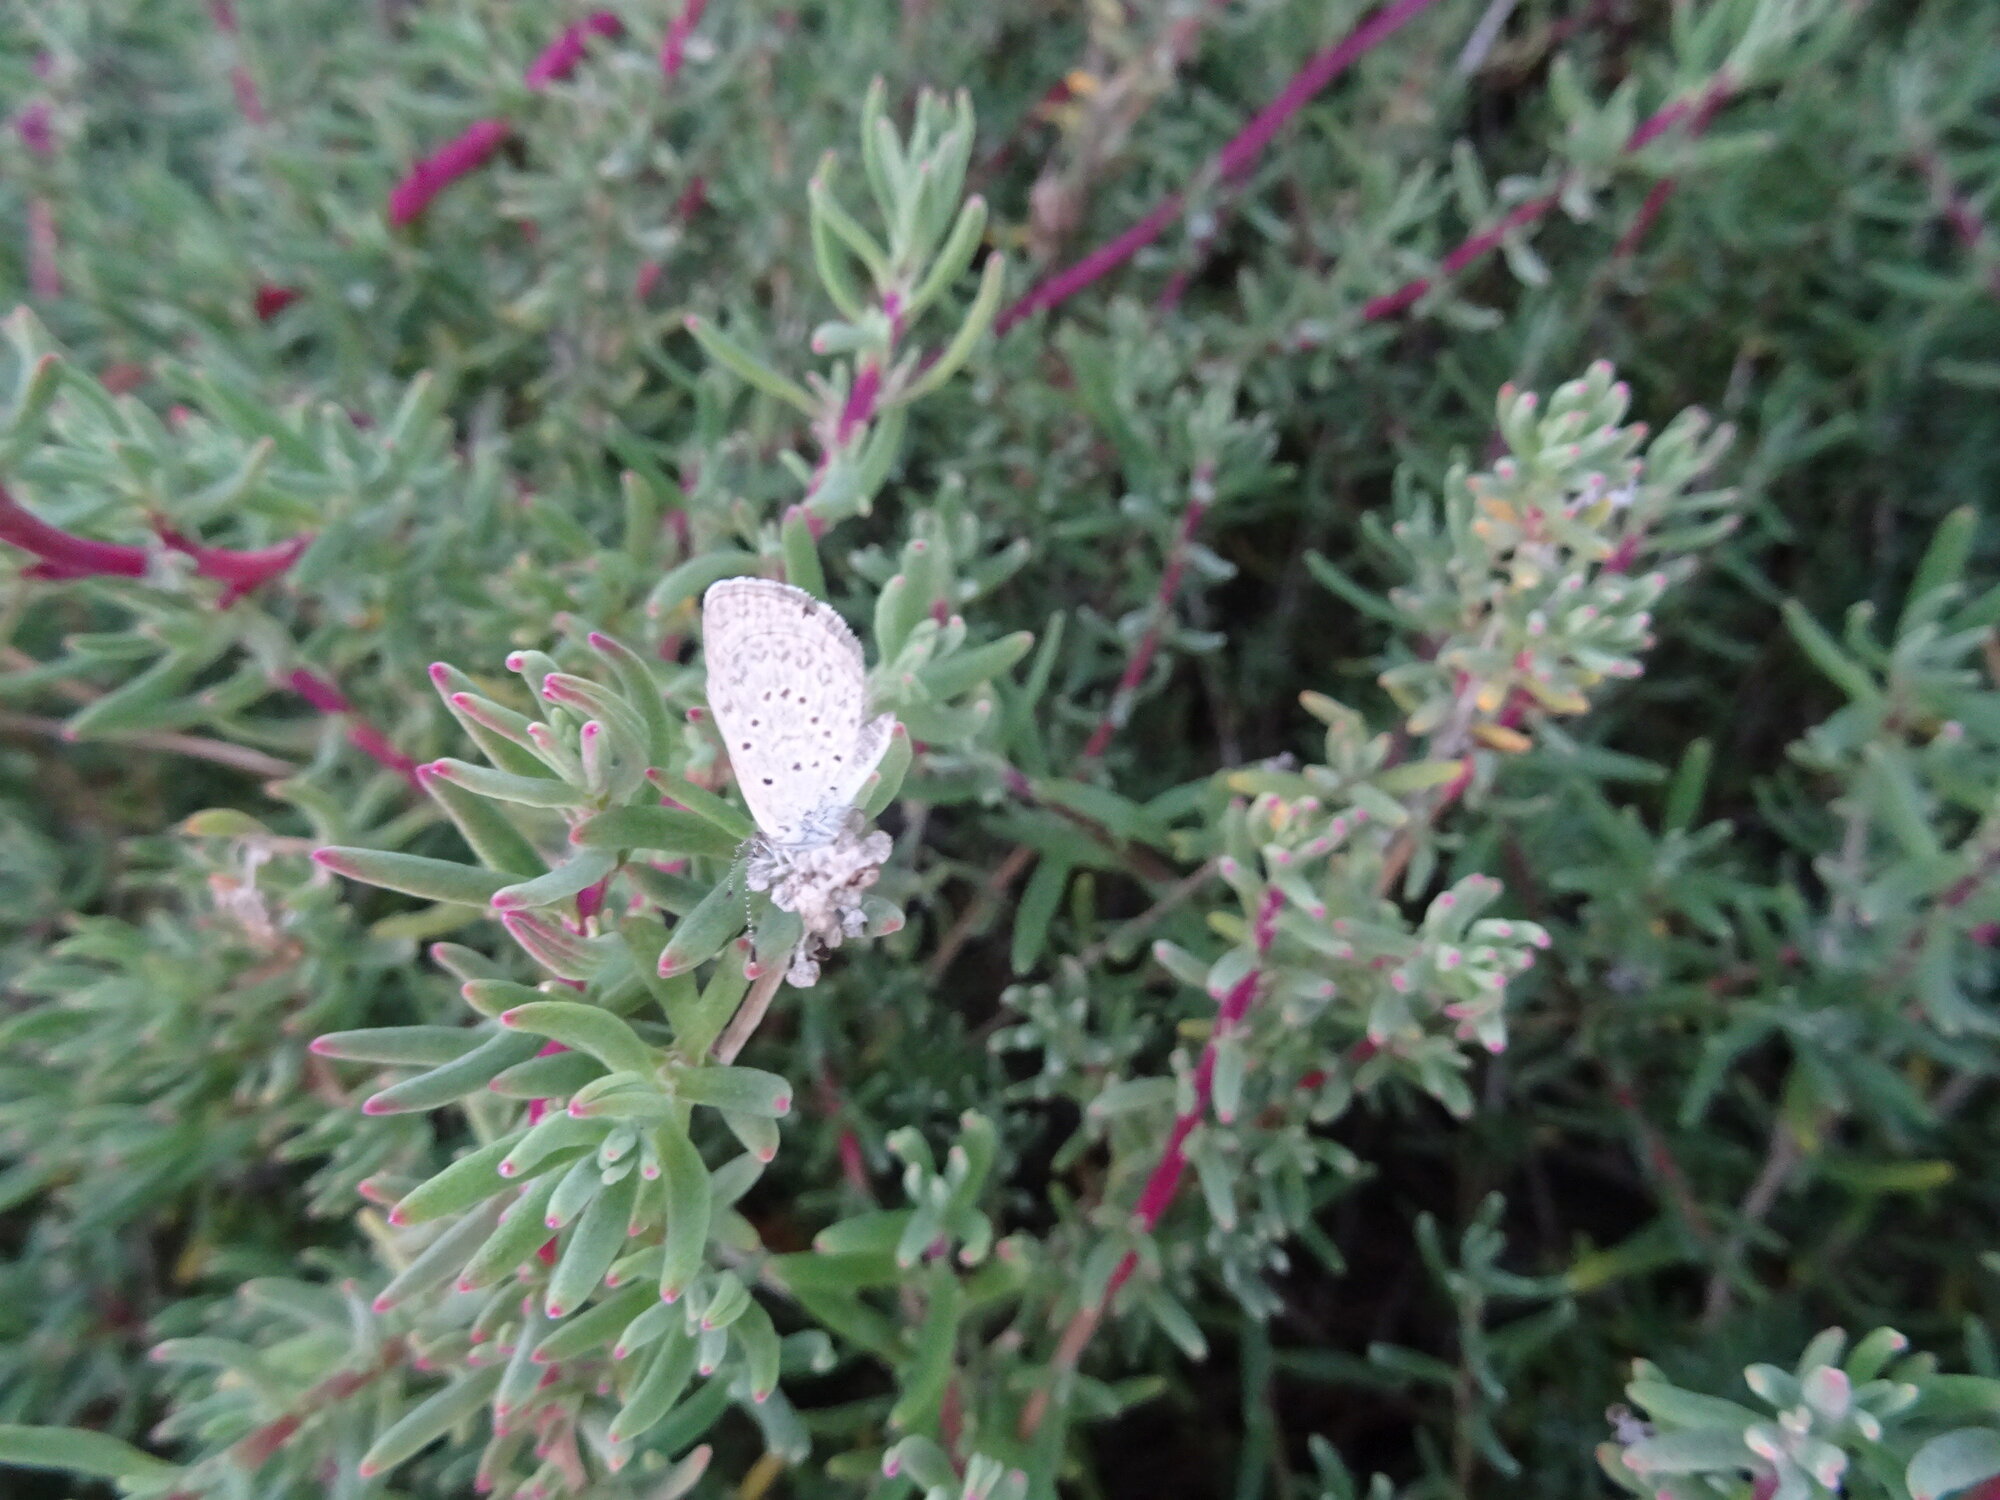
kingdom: Animalia
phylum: Arthropoda
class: Insecta
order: Lepidoptera
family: Lycaenidae
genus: Zizeeria
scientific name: Zizeeria knysna
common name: African grass blue
